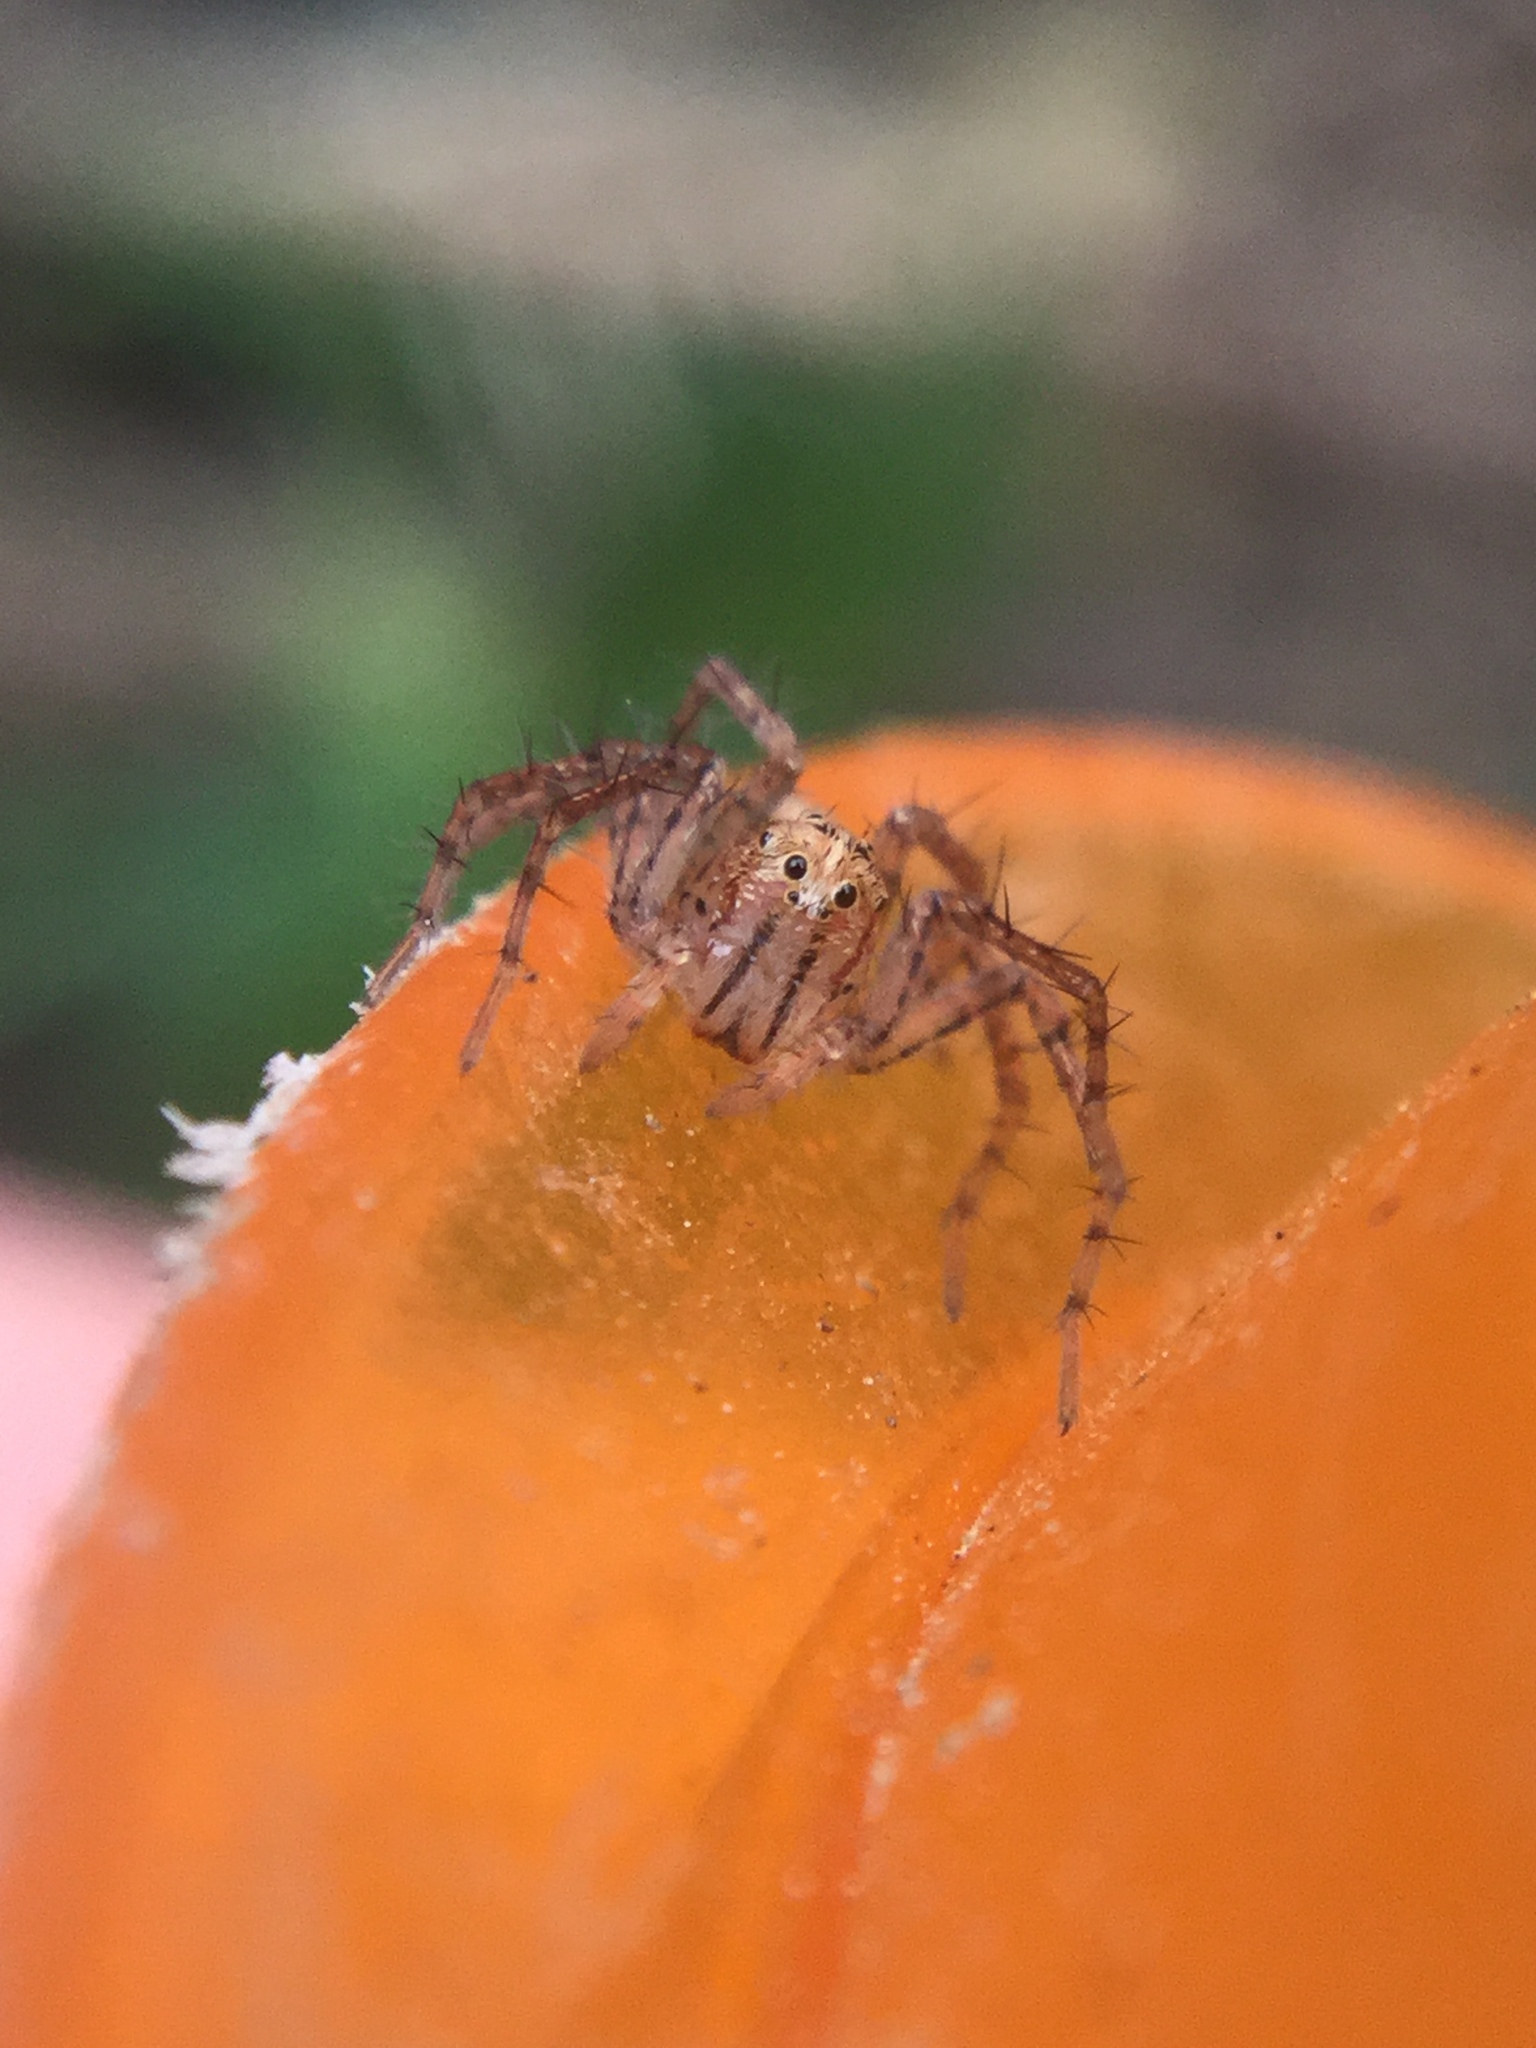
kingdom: Animalia
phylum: Arthropoda
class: Arachnida
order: Araneae
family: Oxyopidae
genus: Oxyopes
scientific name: Oxyopes aglossus
